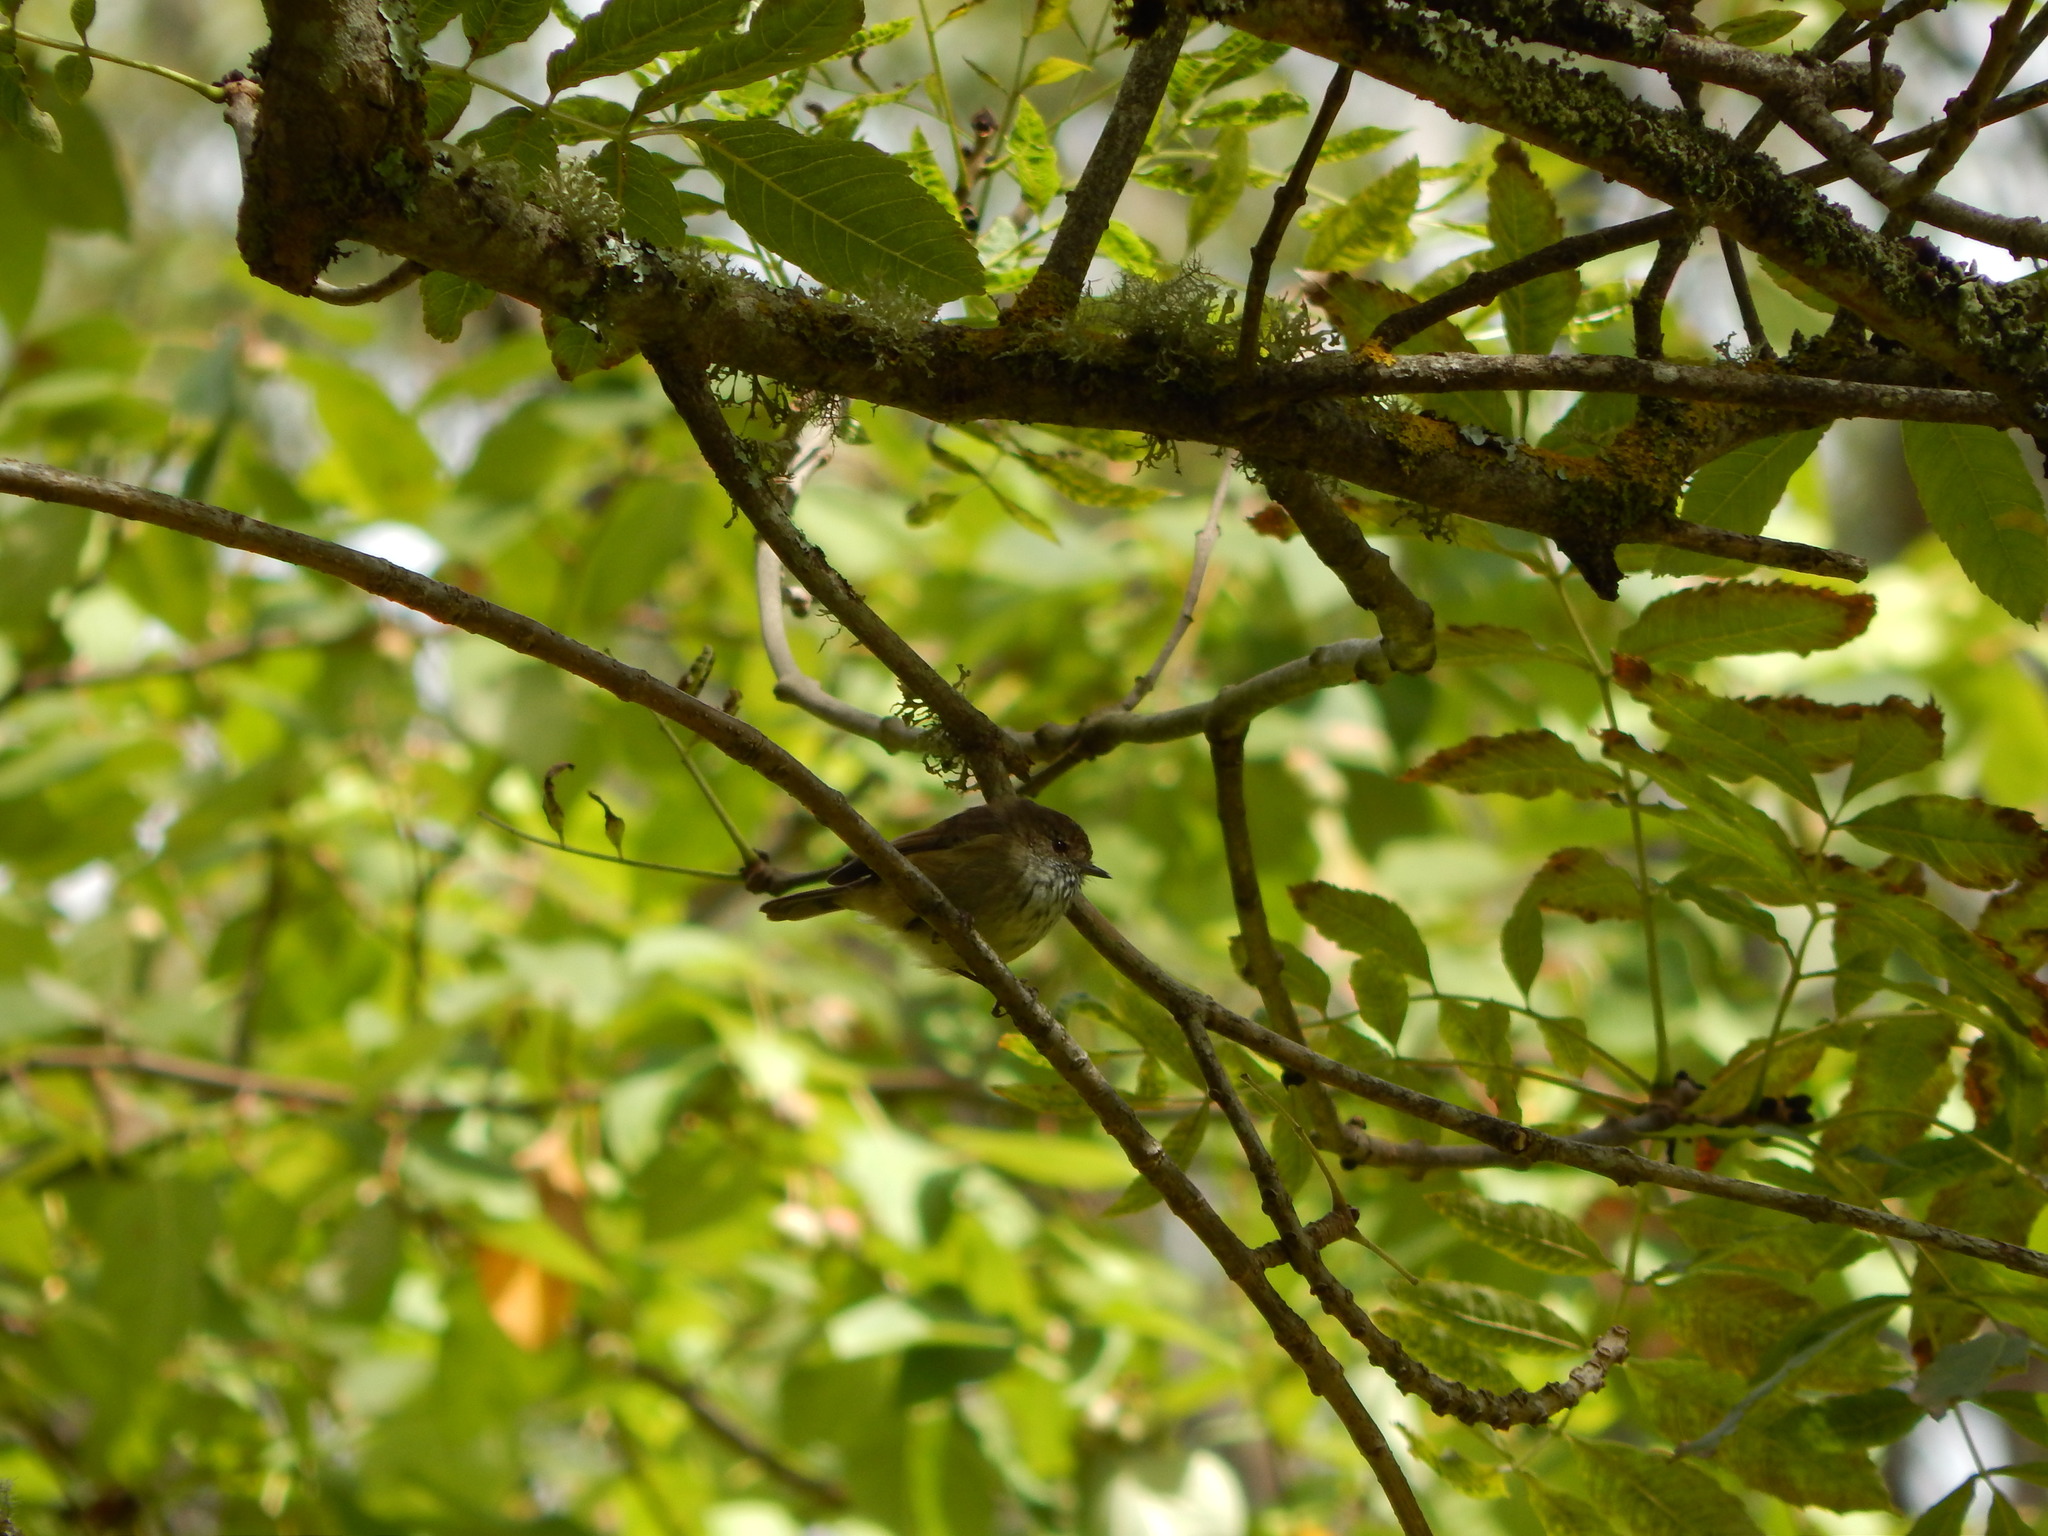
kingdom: Animalia
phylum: Chordata
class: Aves
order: Passeriformes
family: Acanthizidae
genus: Acanthiza
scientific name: Acanthiza pusilla
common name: Brown thornbill
